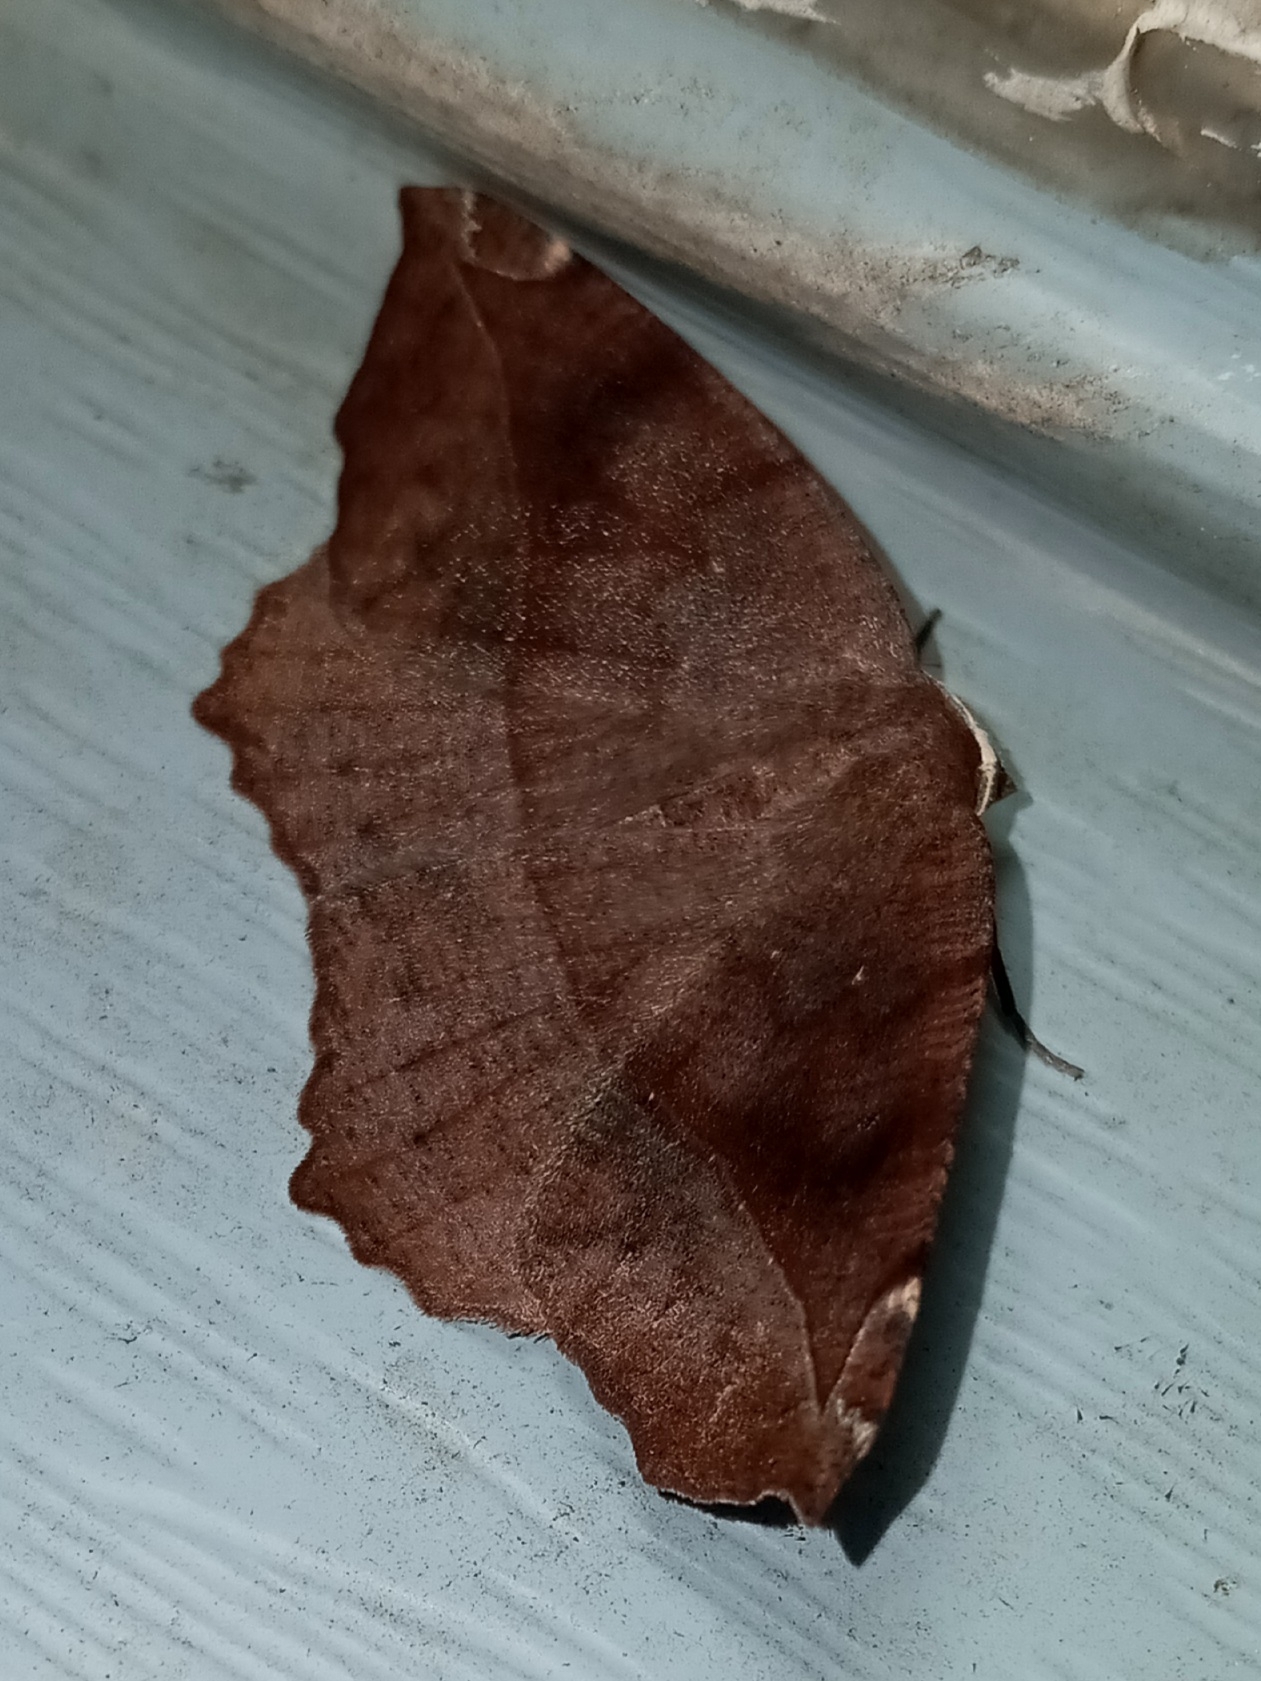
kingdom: Animalia
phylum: Arthropoda
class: Insecta
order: Lepidoptera
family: Geometridae
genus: Eutrapela
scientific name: Eutrapela clemataria
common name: Curved-toothed geometer
